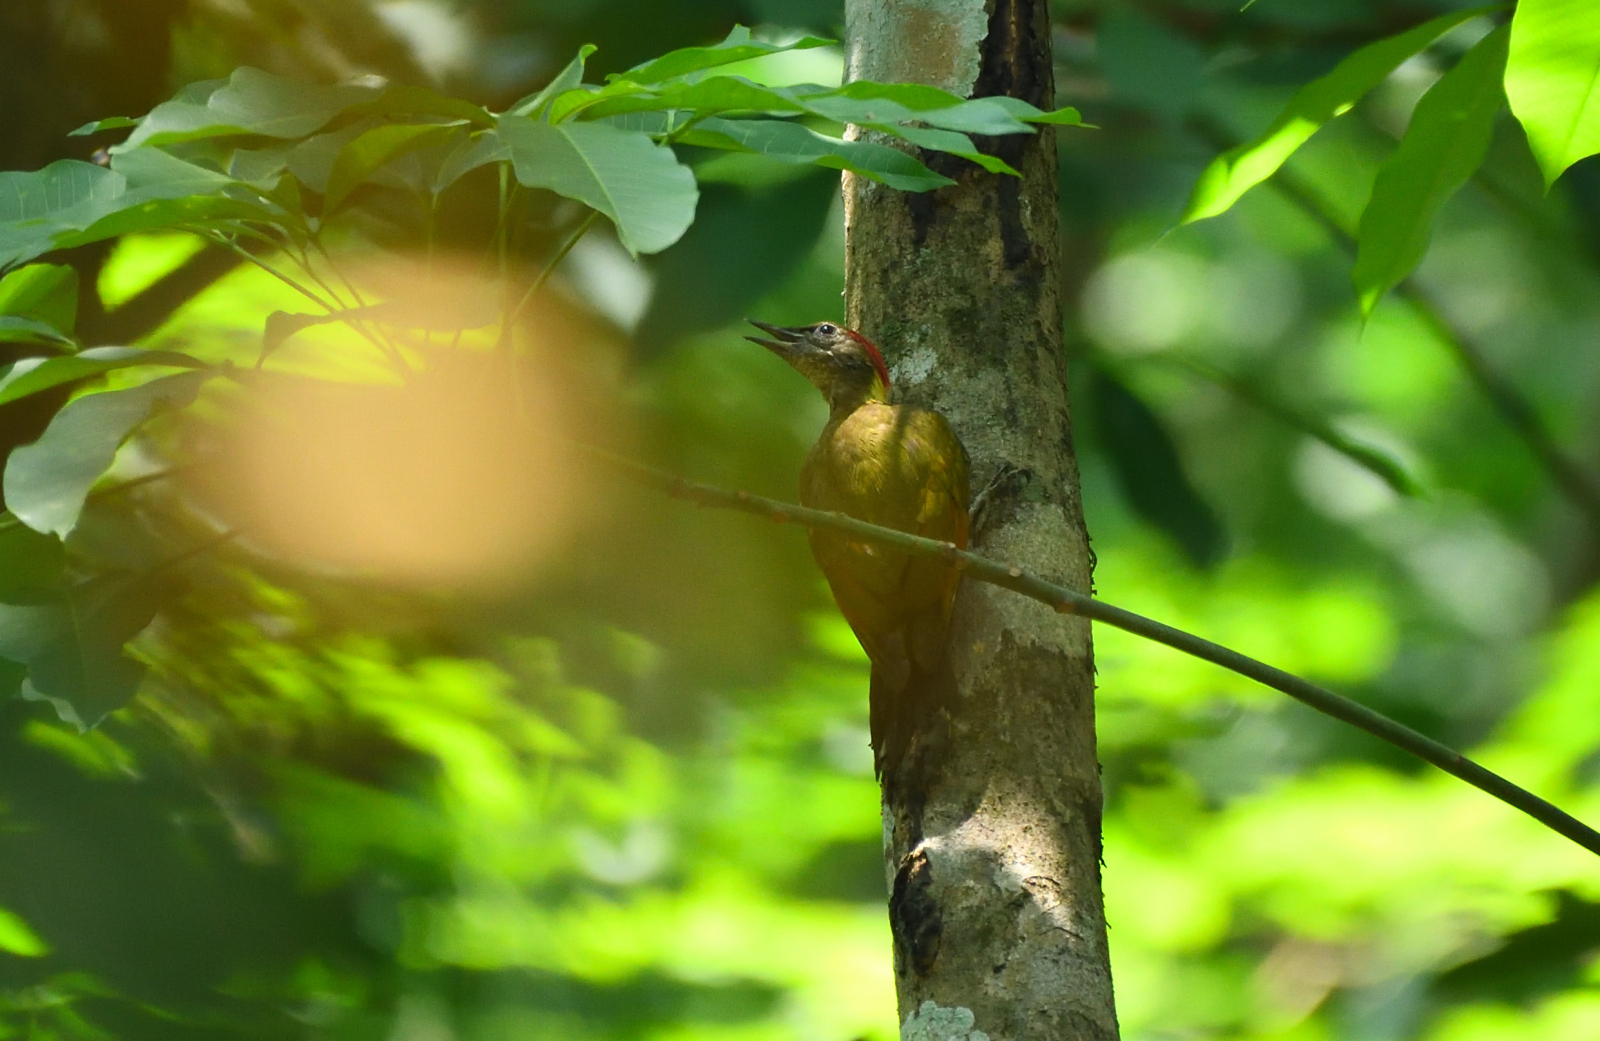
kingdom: Animalia
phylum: Chordata
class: Aves
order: Piciformes
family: Picidae
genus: Picus
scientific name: Picus chlorolophus
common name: Lesser yellownape
